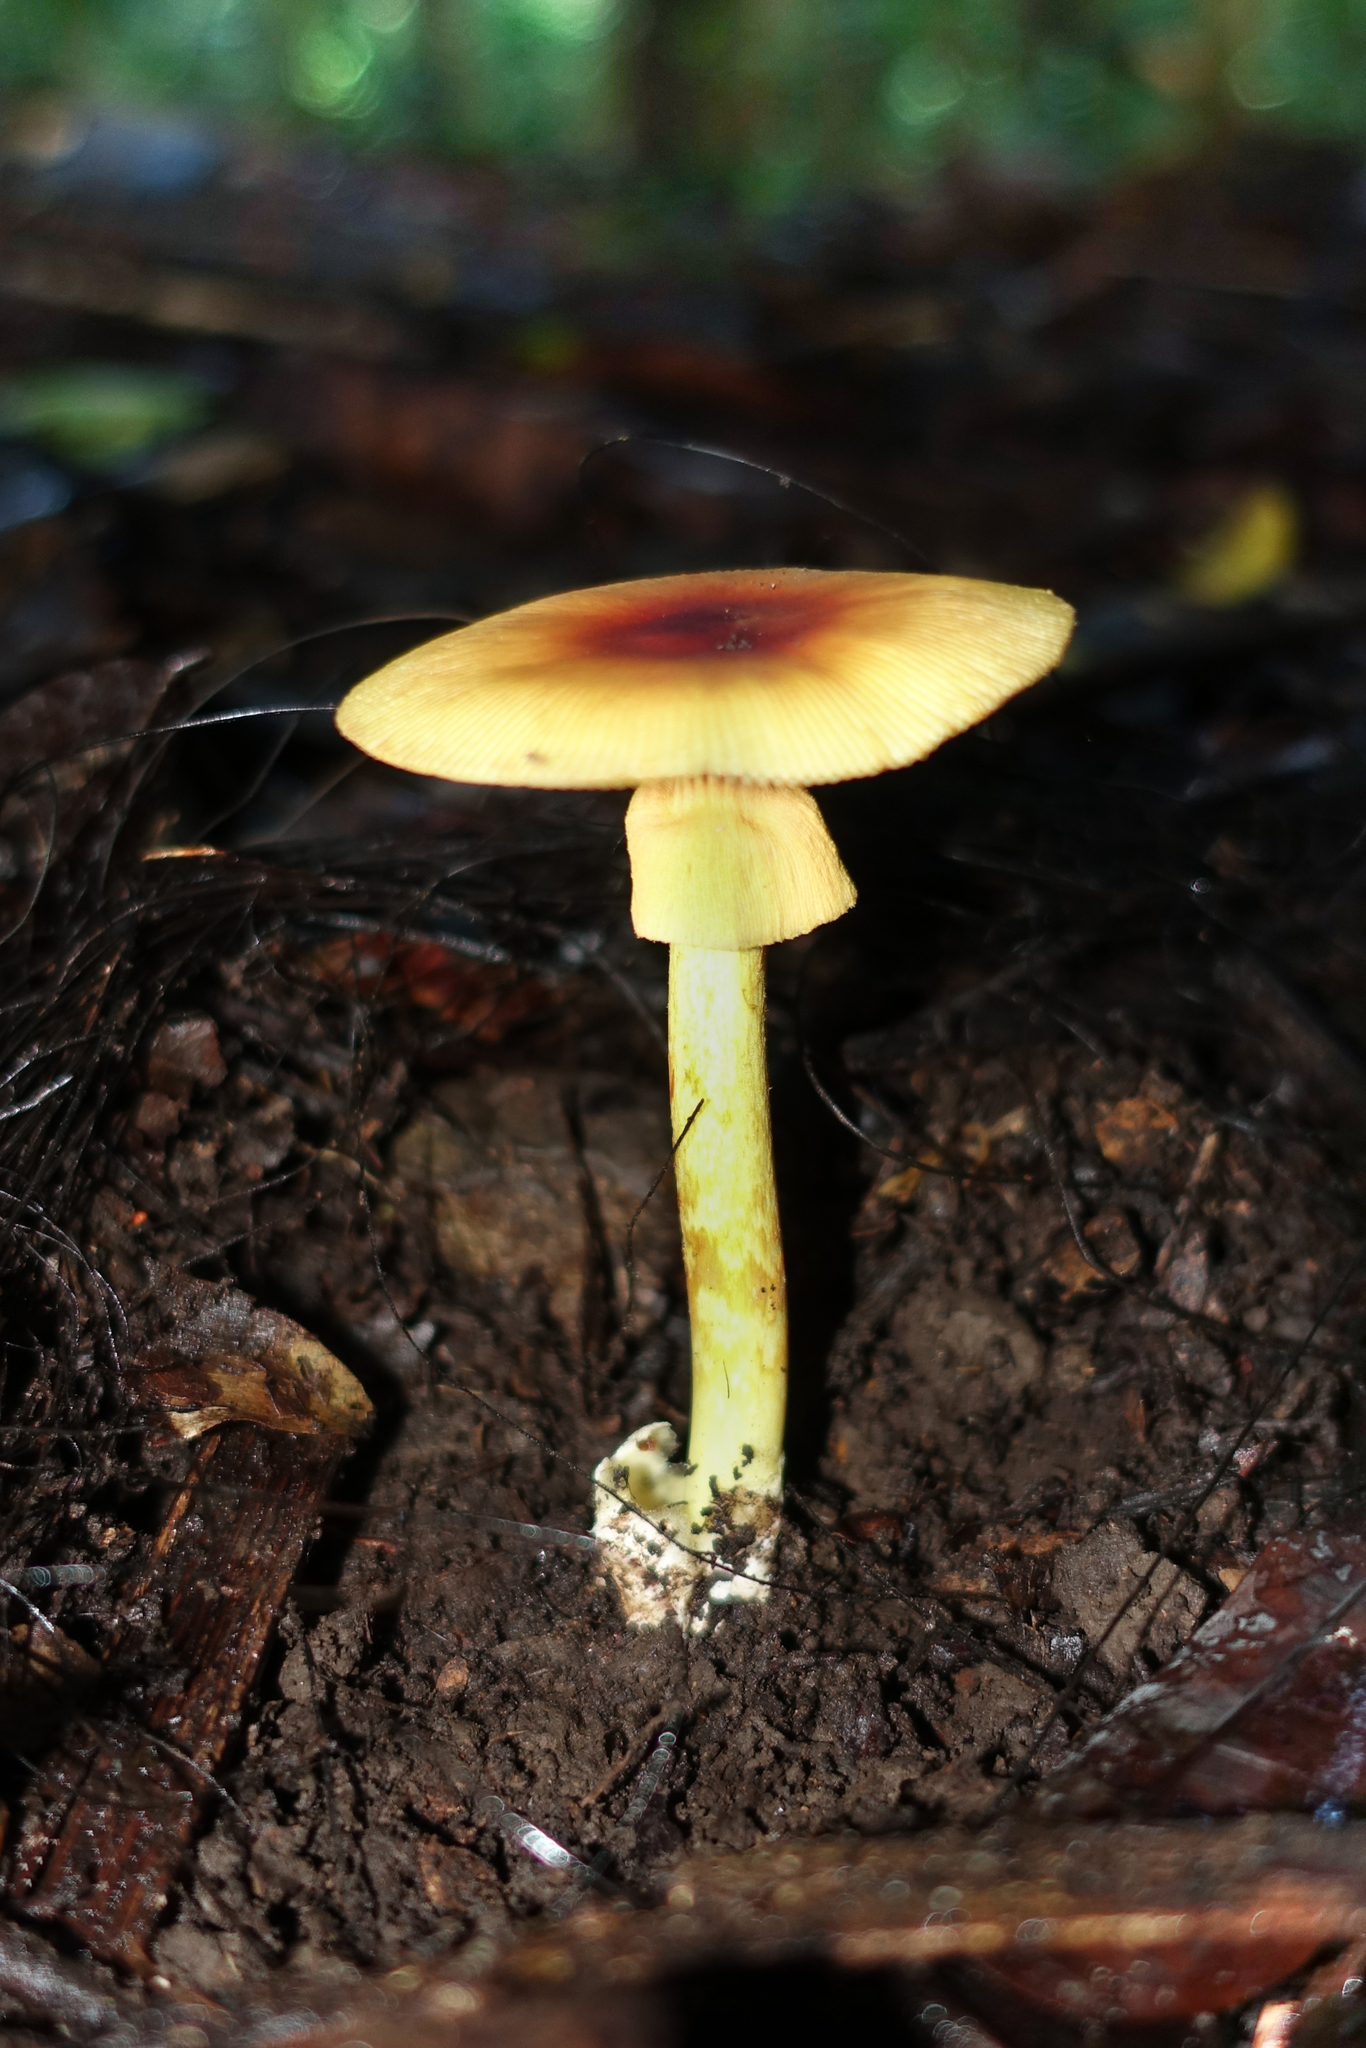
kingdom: Fungi
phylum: Basidiomycota
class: Agaricomycetes
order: Agaricales
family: Amanitaceae
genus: Amanita
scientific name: Amanita javanica
